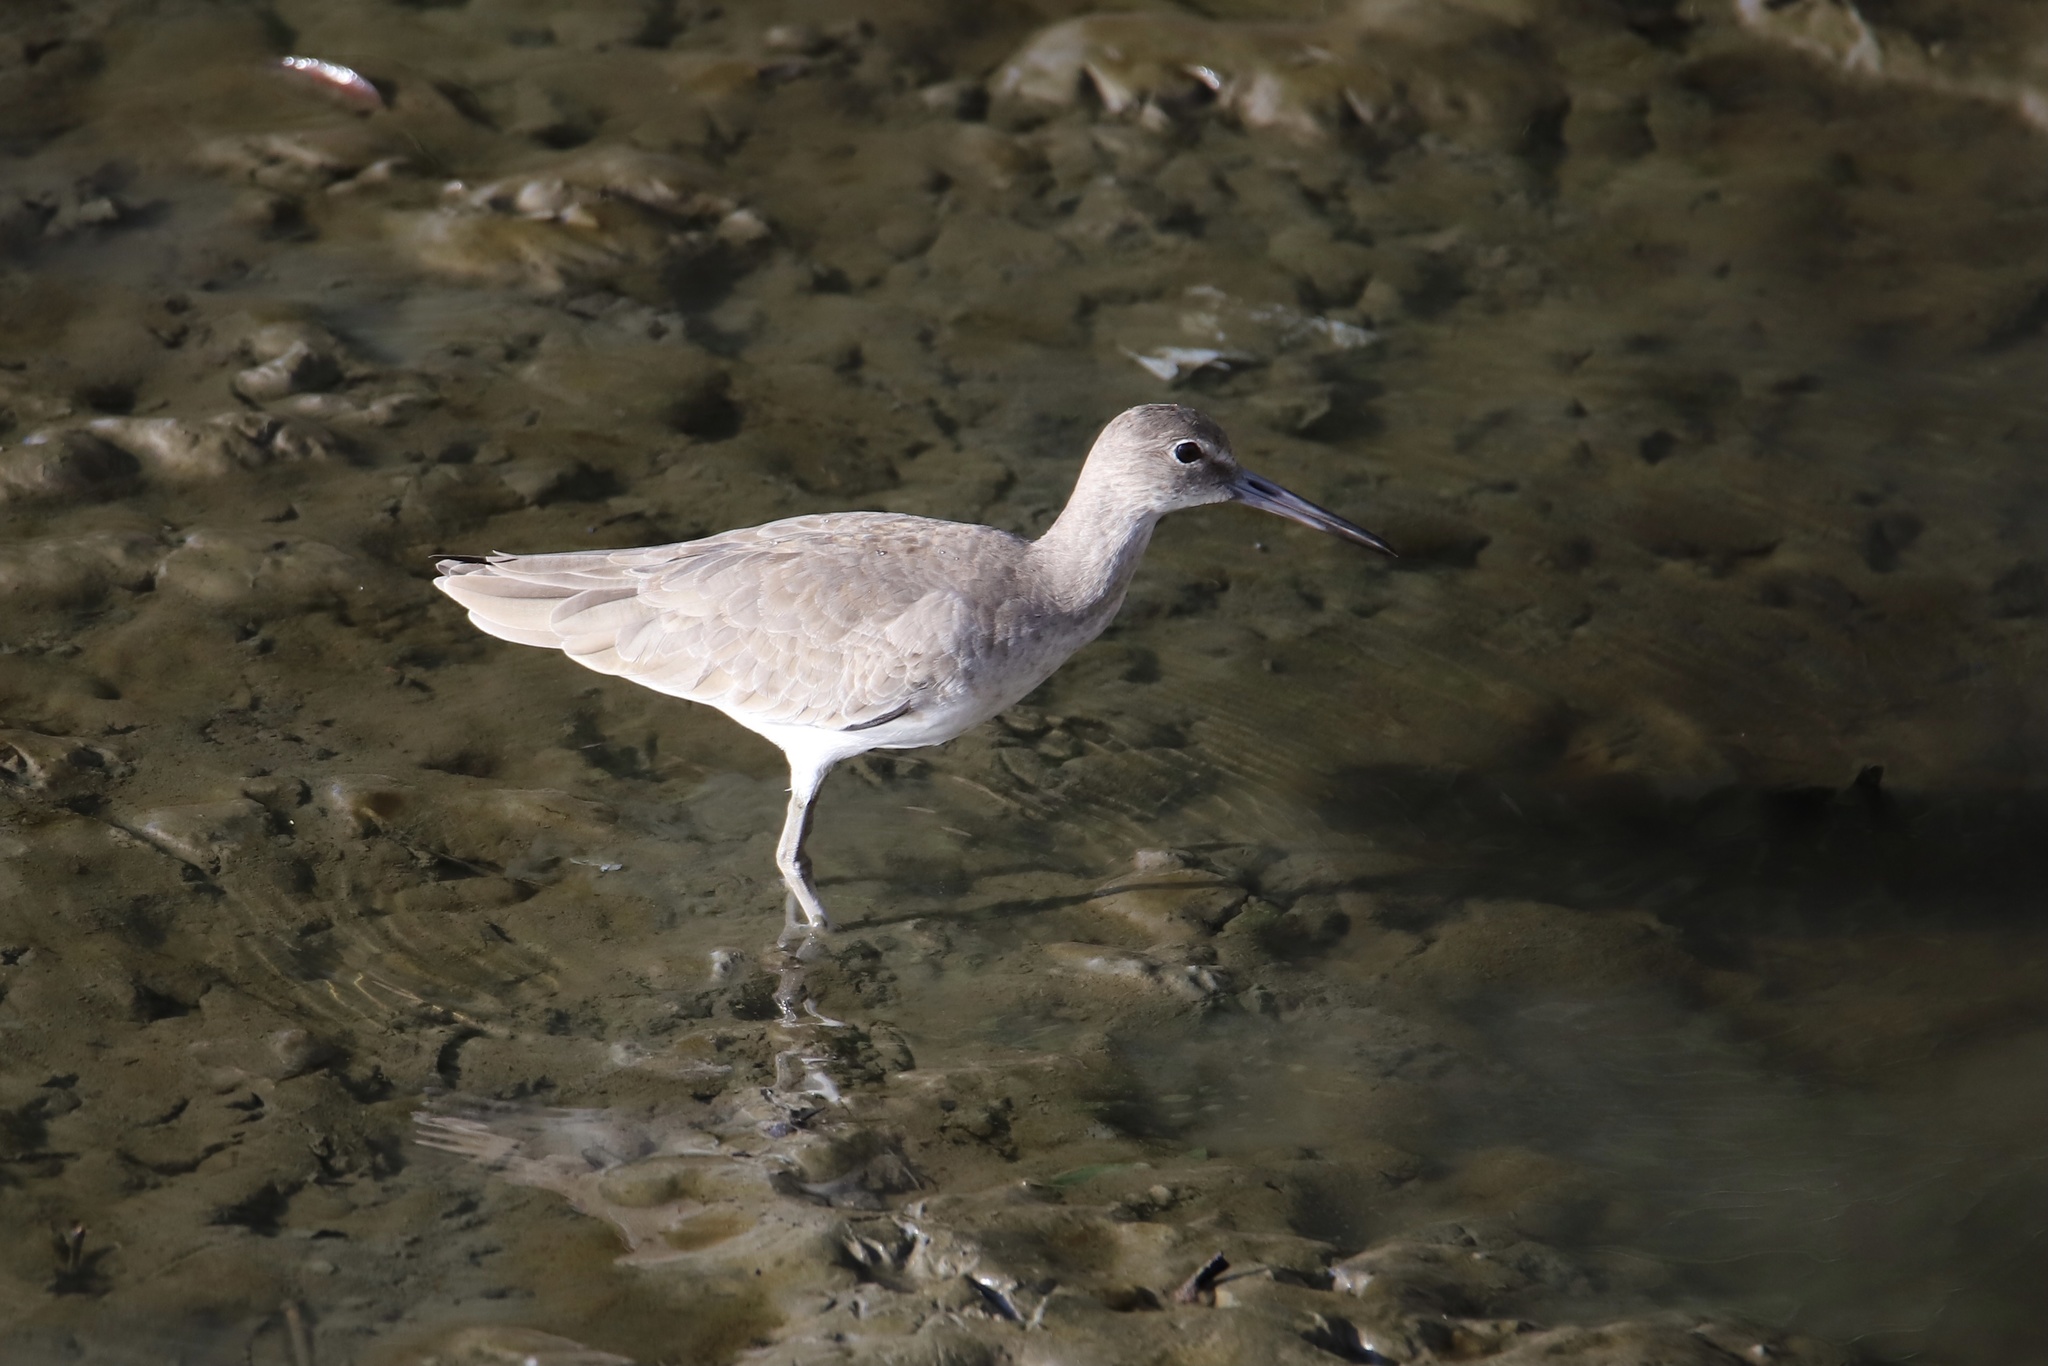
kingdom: Animalia
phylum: Chordata
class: Aves
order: Charadriiformes
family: Scolopacidae
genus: Tringa
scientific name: Tringa semipalmata
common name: Willet
